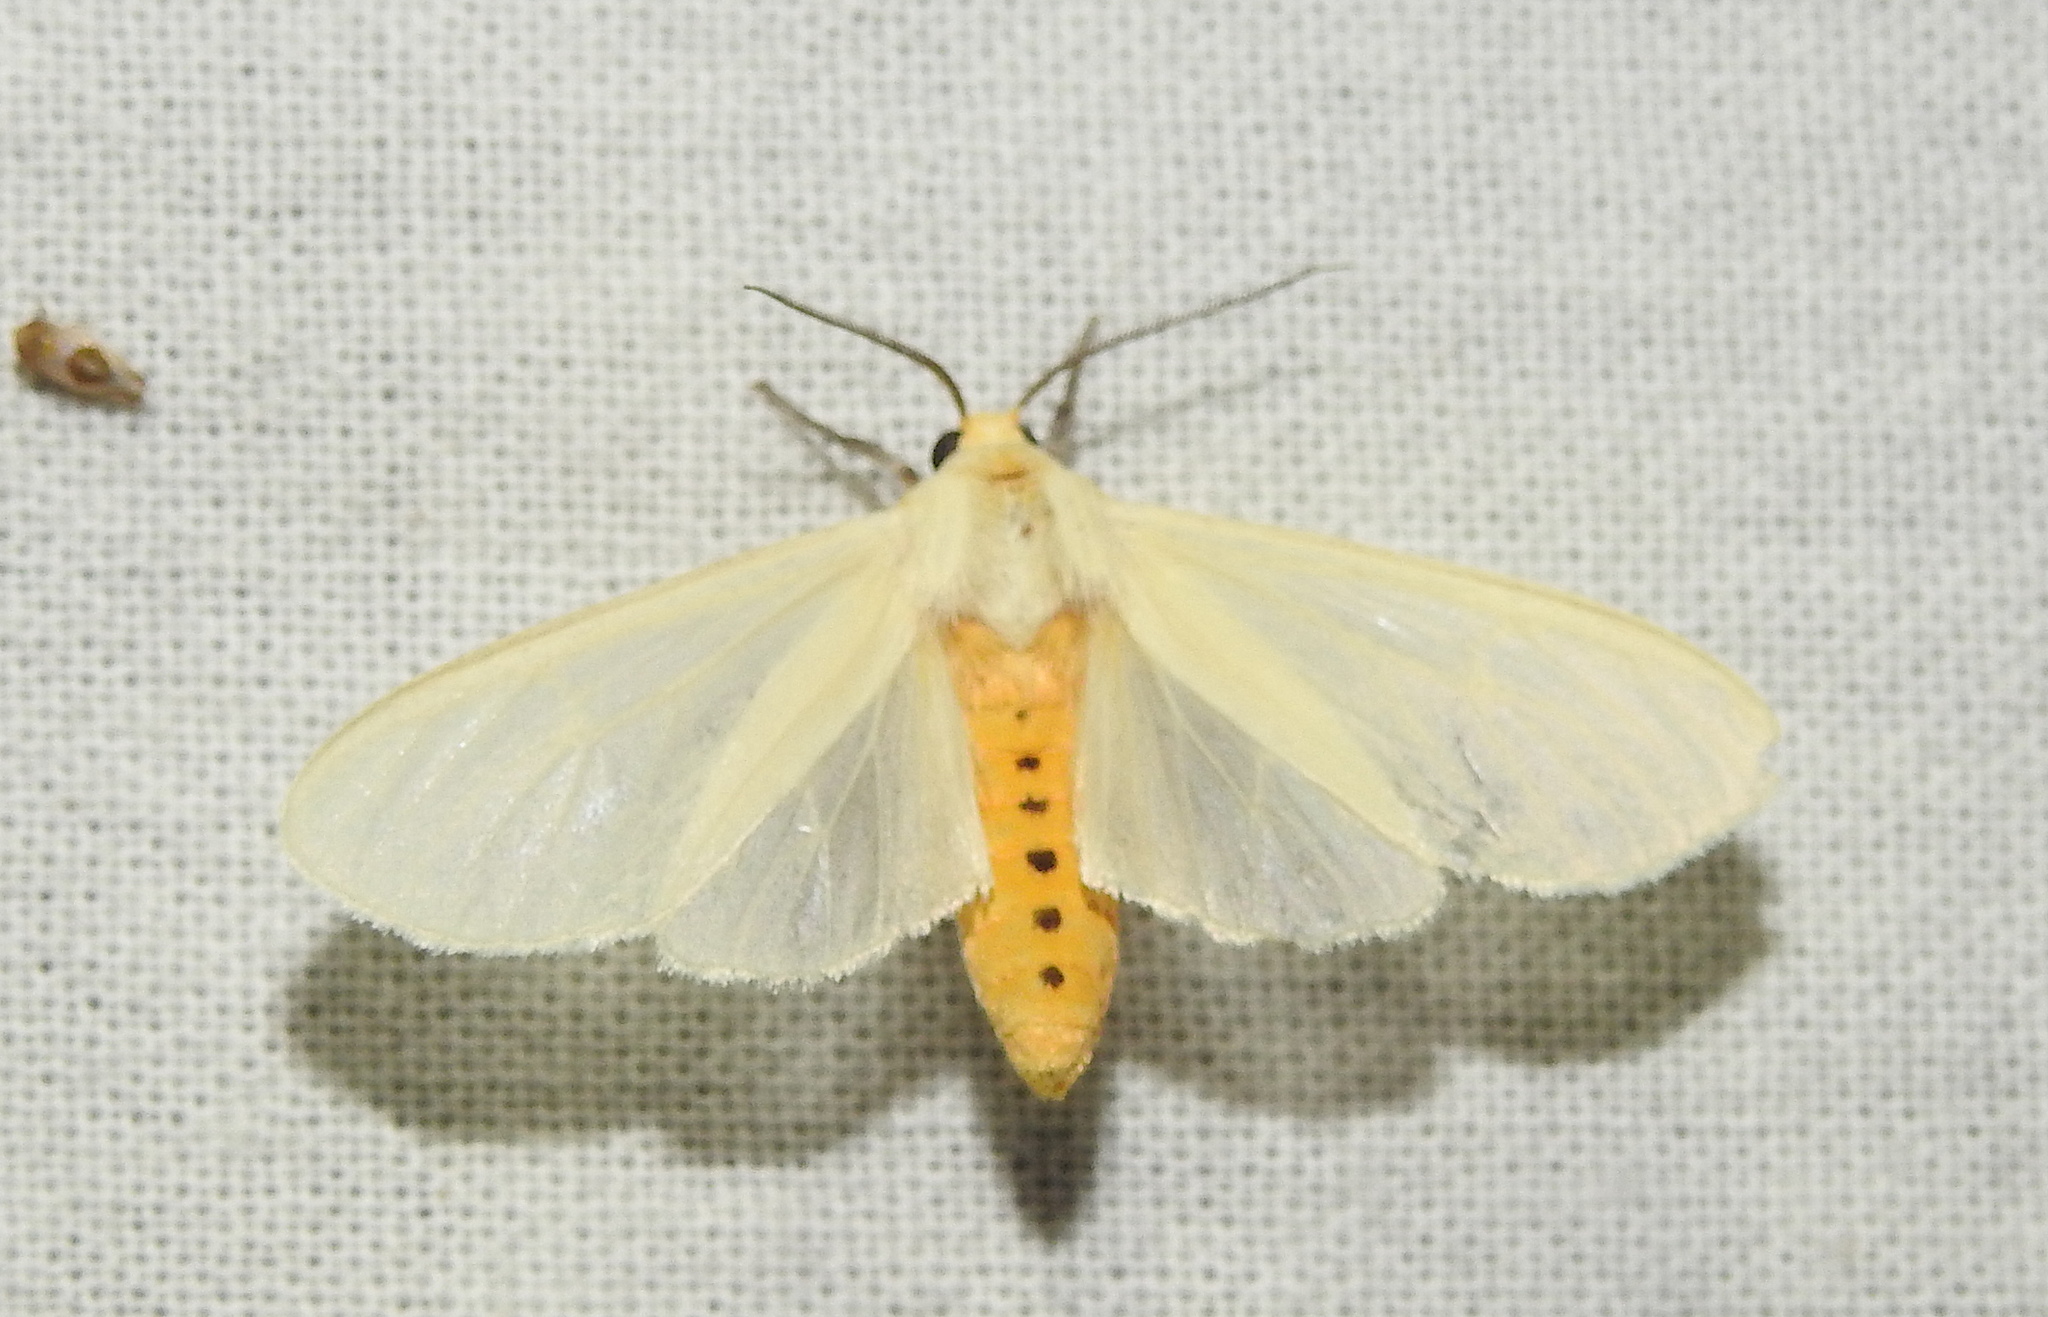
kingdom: Animalia
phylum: Arthropoda
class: Insecta
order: Lepidoptera
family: Erebidae
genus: Pareuchaetes
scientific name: Pareuchaetes pseudoinsulata
